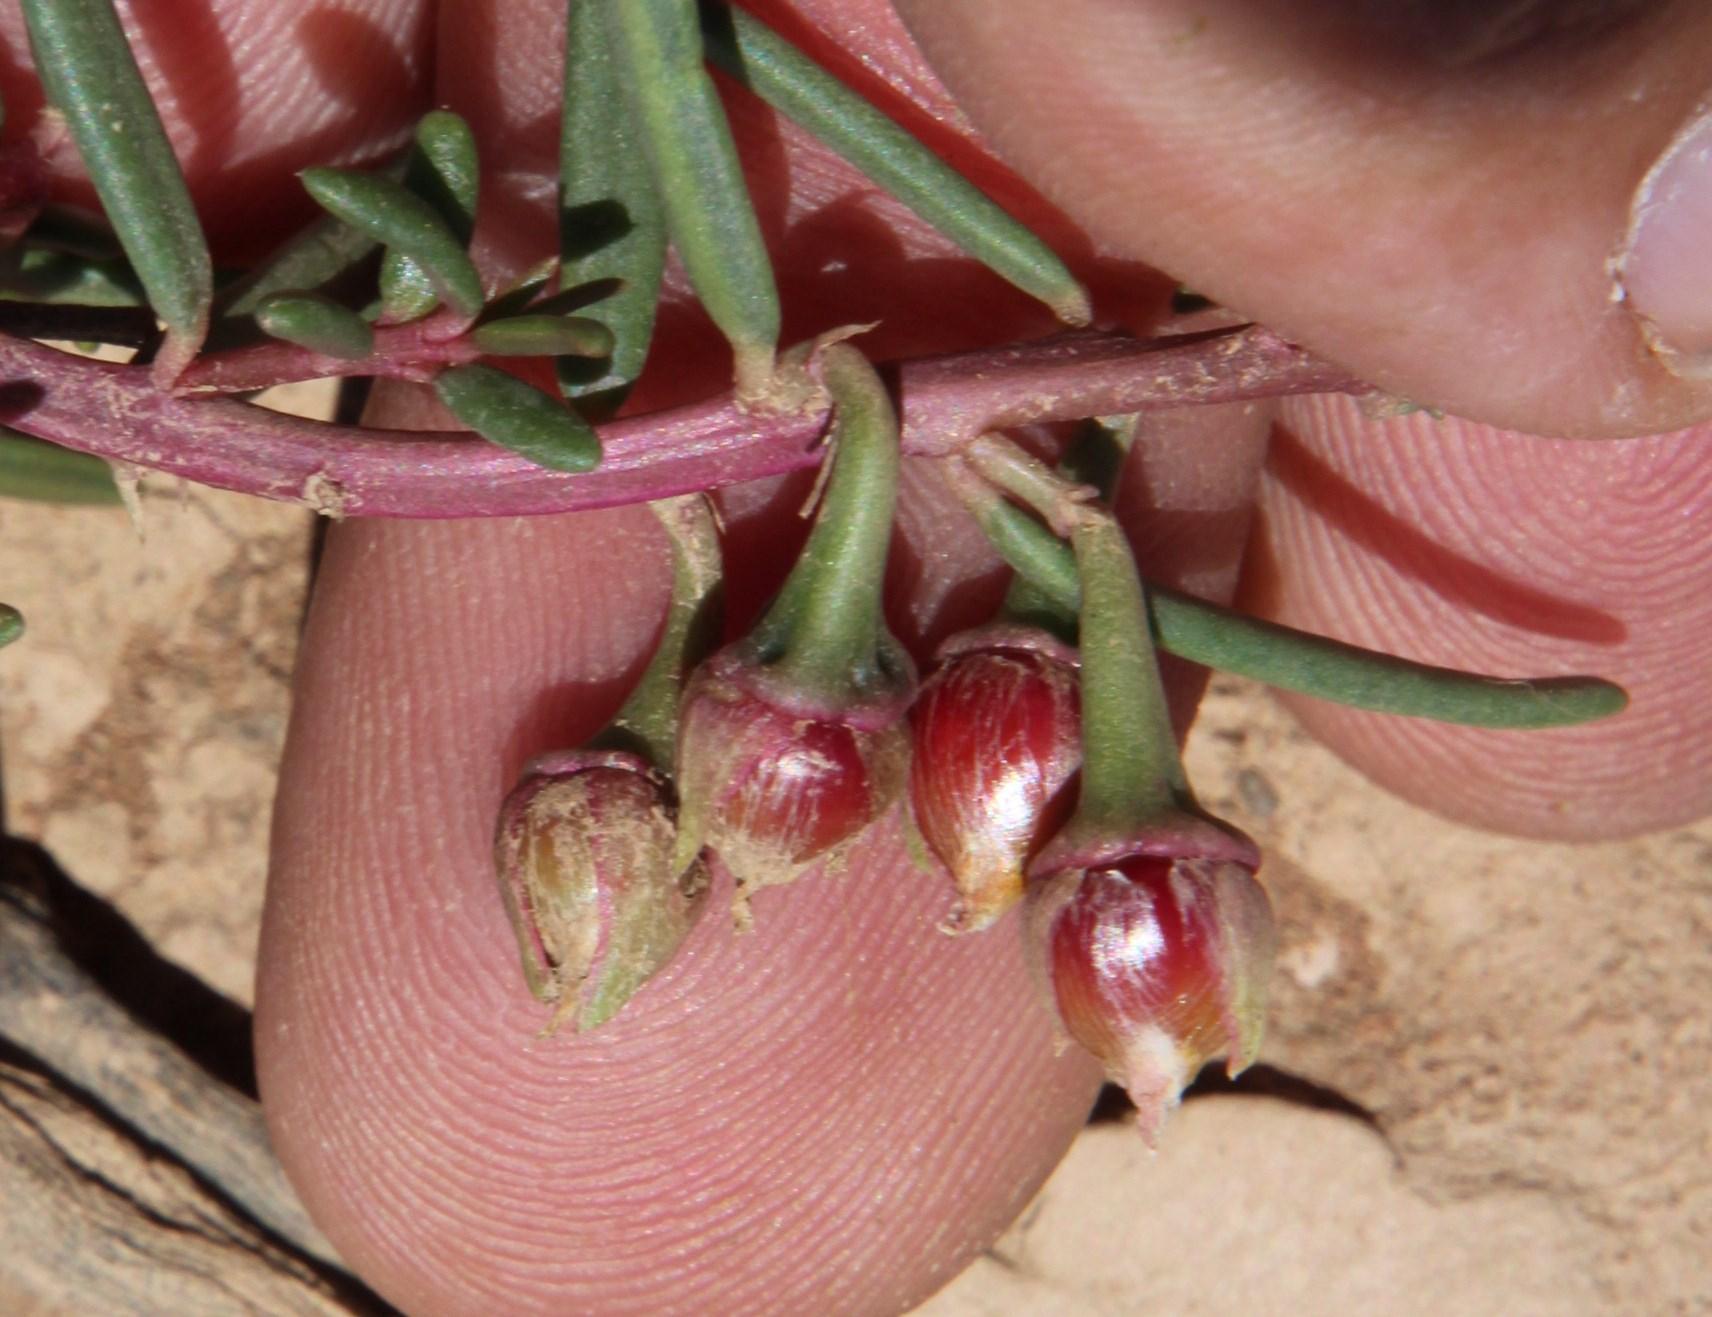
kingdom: Plantae
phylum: Tracheophyta
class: Magnoliopsida
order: Caryophyllales
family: Talinaceae
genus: Talinum
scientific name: Talinum caffrum
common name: Flameflower
